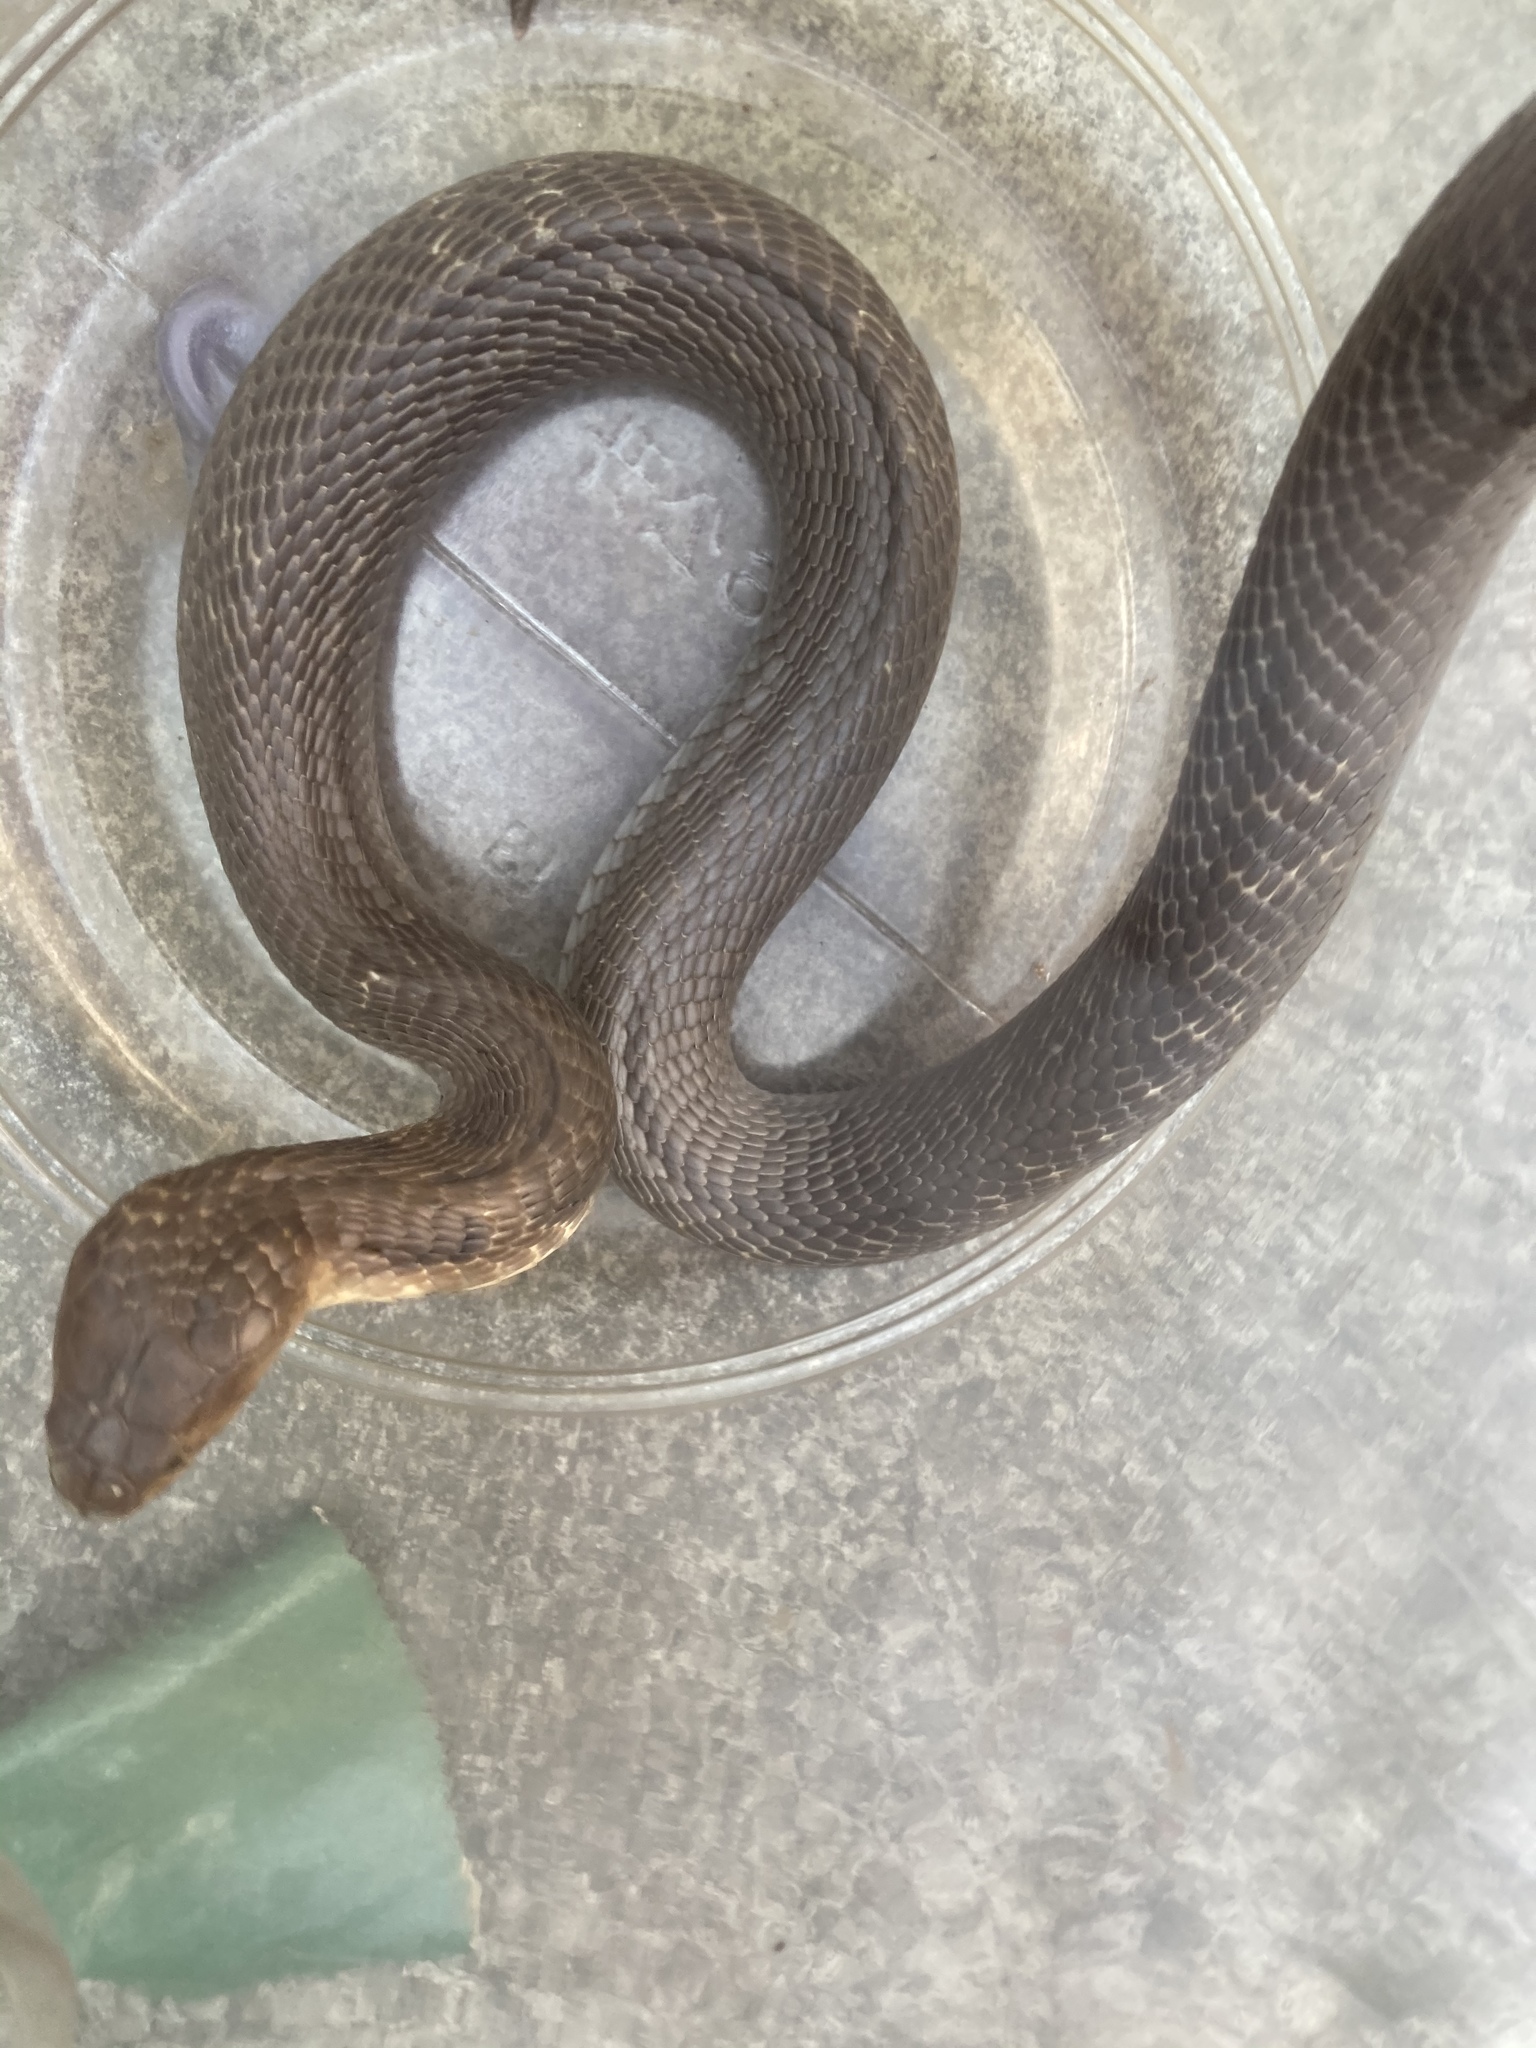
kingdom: Animalia
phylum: Chordata
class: Squamata
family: Elapidae
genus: Naja
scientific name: Naja atra
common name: Chinese cobra
